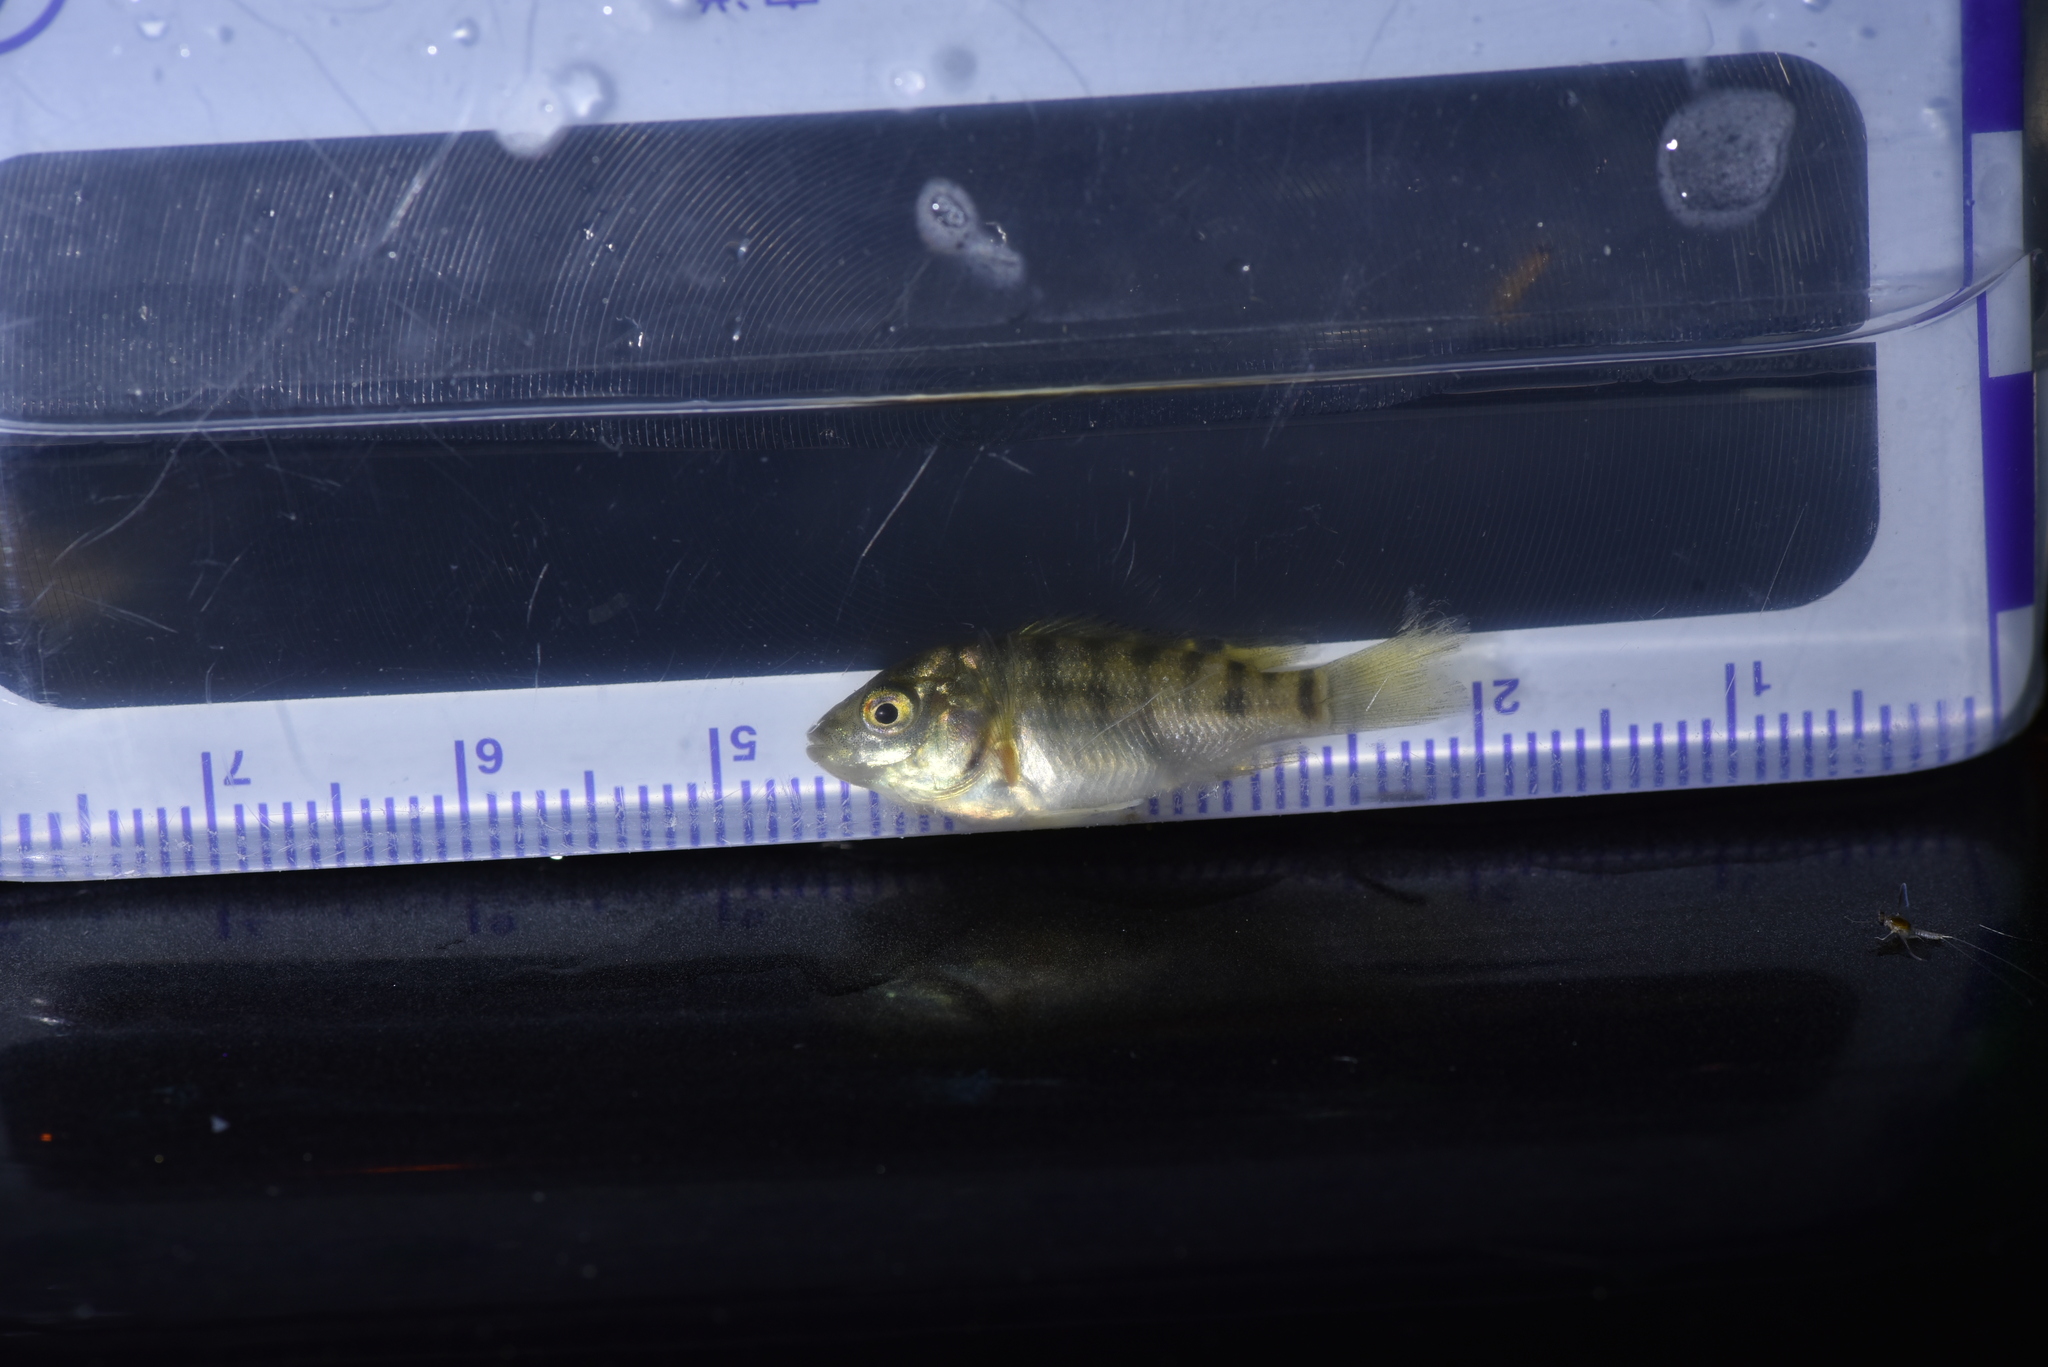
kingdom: Animalia
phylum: Chordata
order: Perciformes
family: Cichlidae
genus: Coptodon
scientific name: Coptodon zillii
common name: Redbelly tilapia
